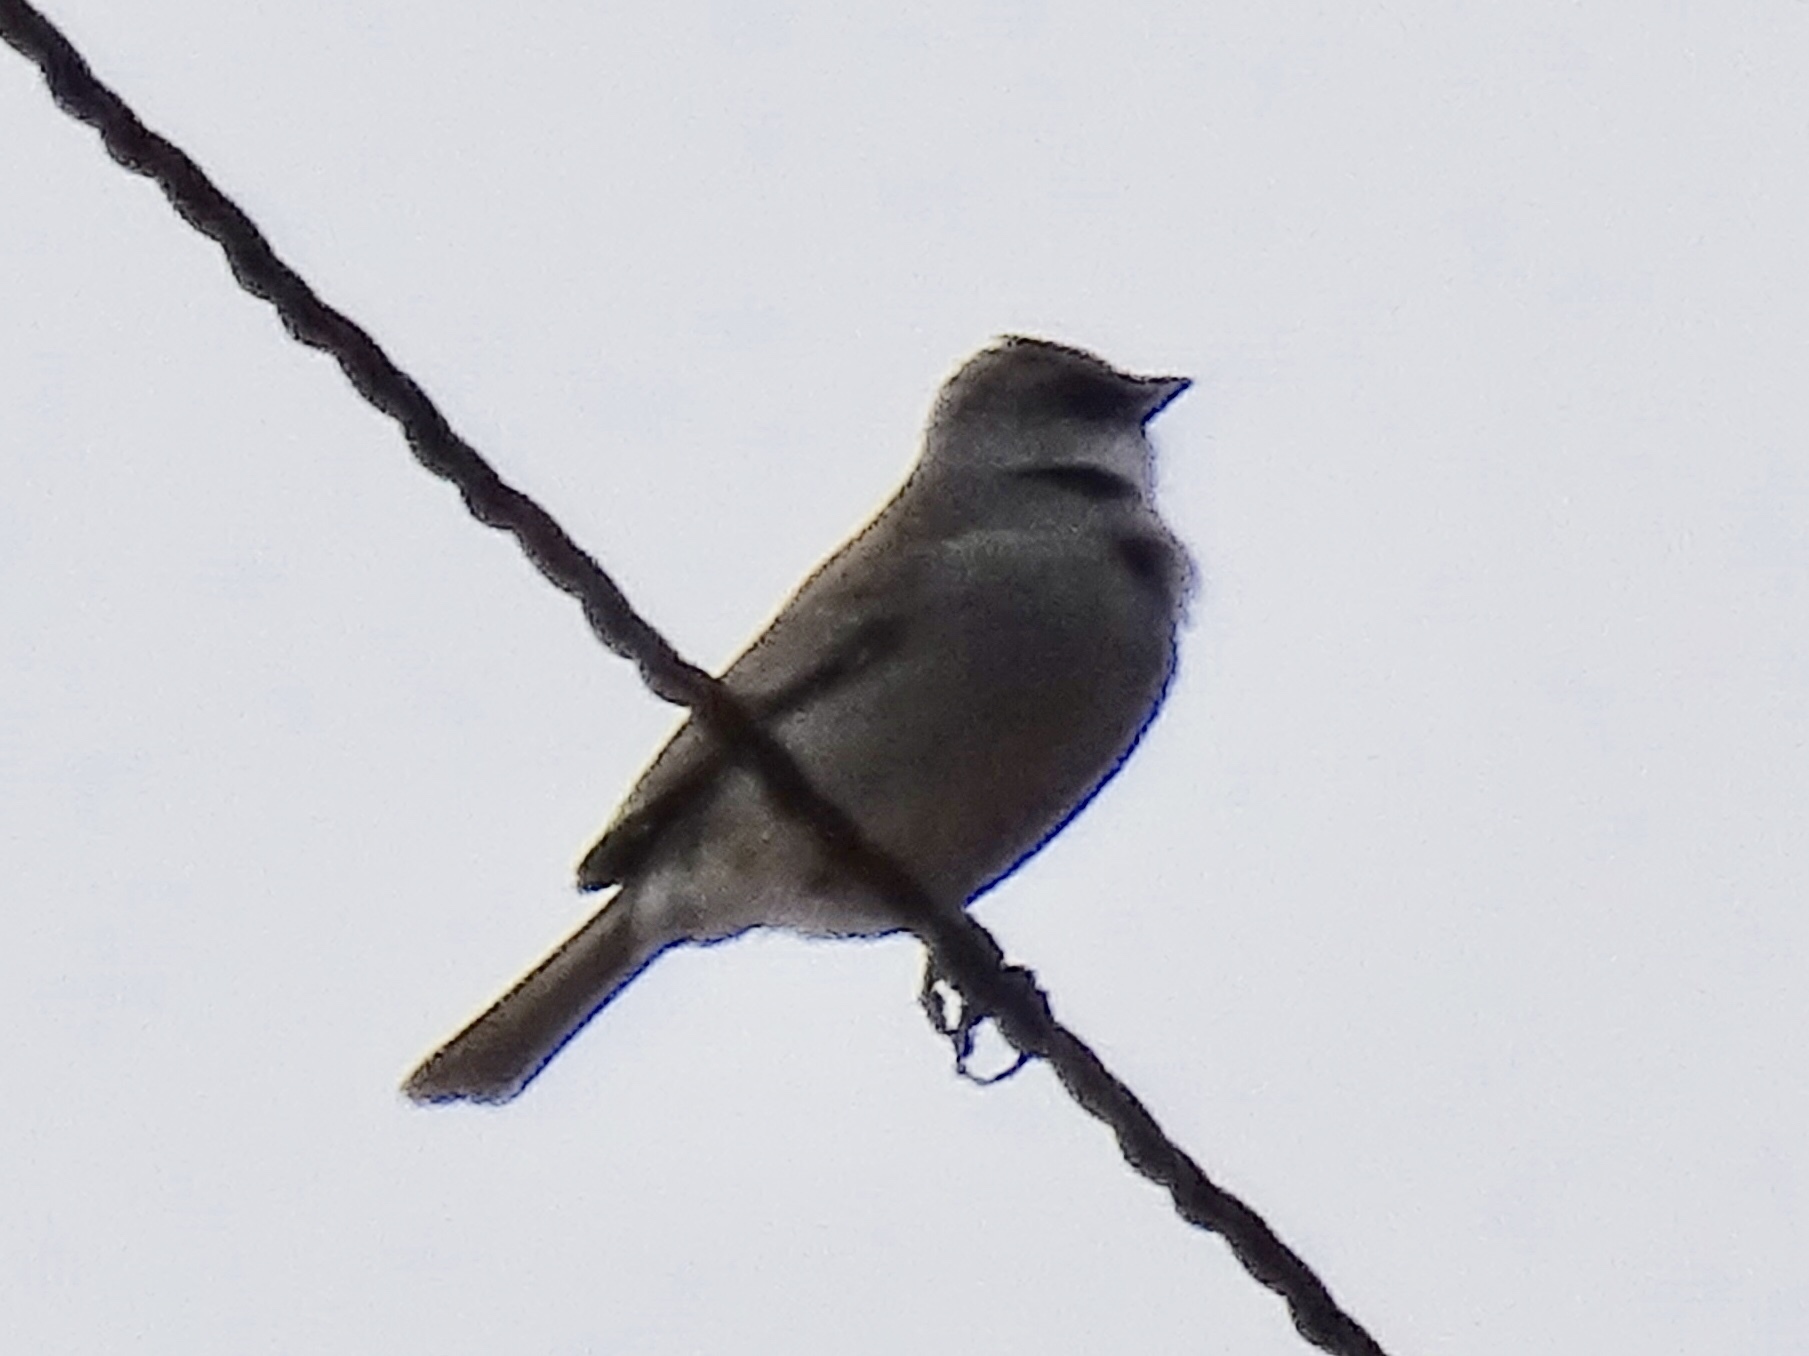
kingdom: Animalia
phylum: Chordata
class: Aves
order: Passeriformes
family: Passerellidae
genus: Junco
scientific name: Junco hyemalis
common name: Dark-eyed junco
